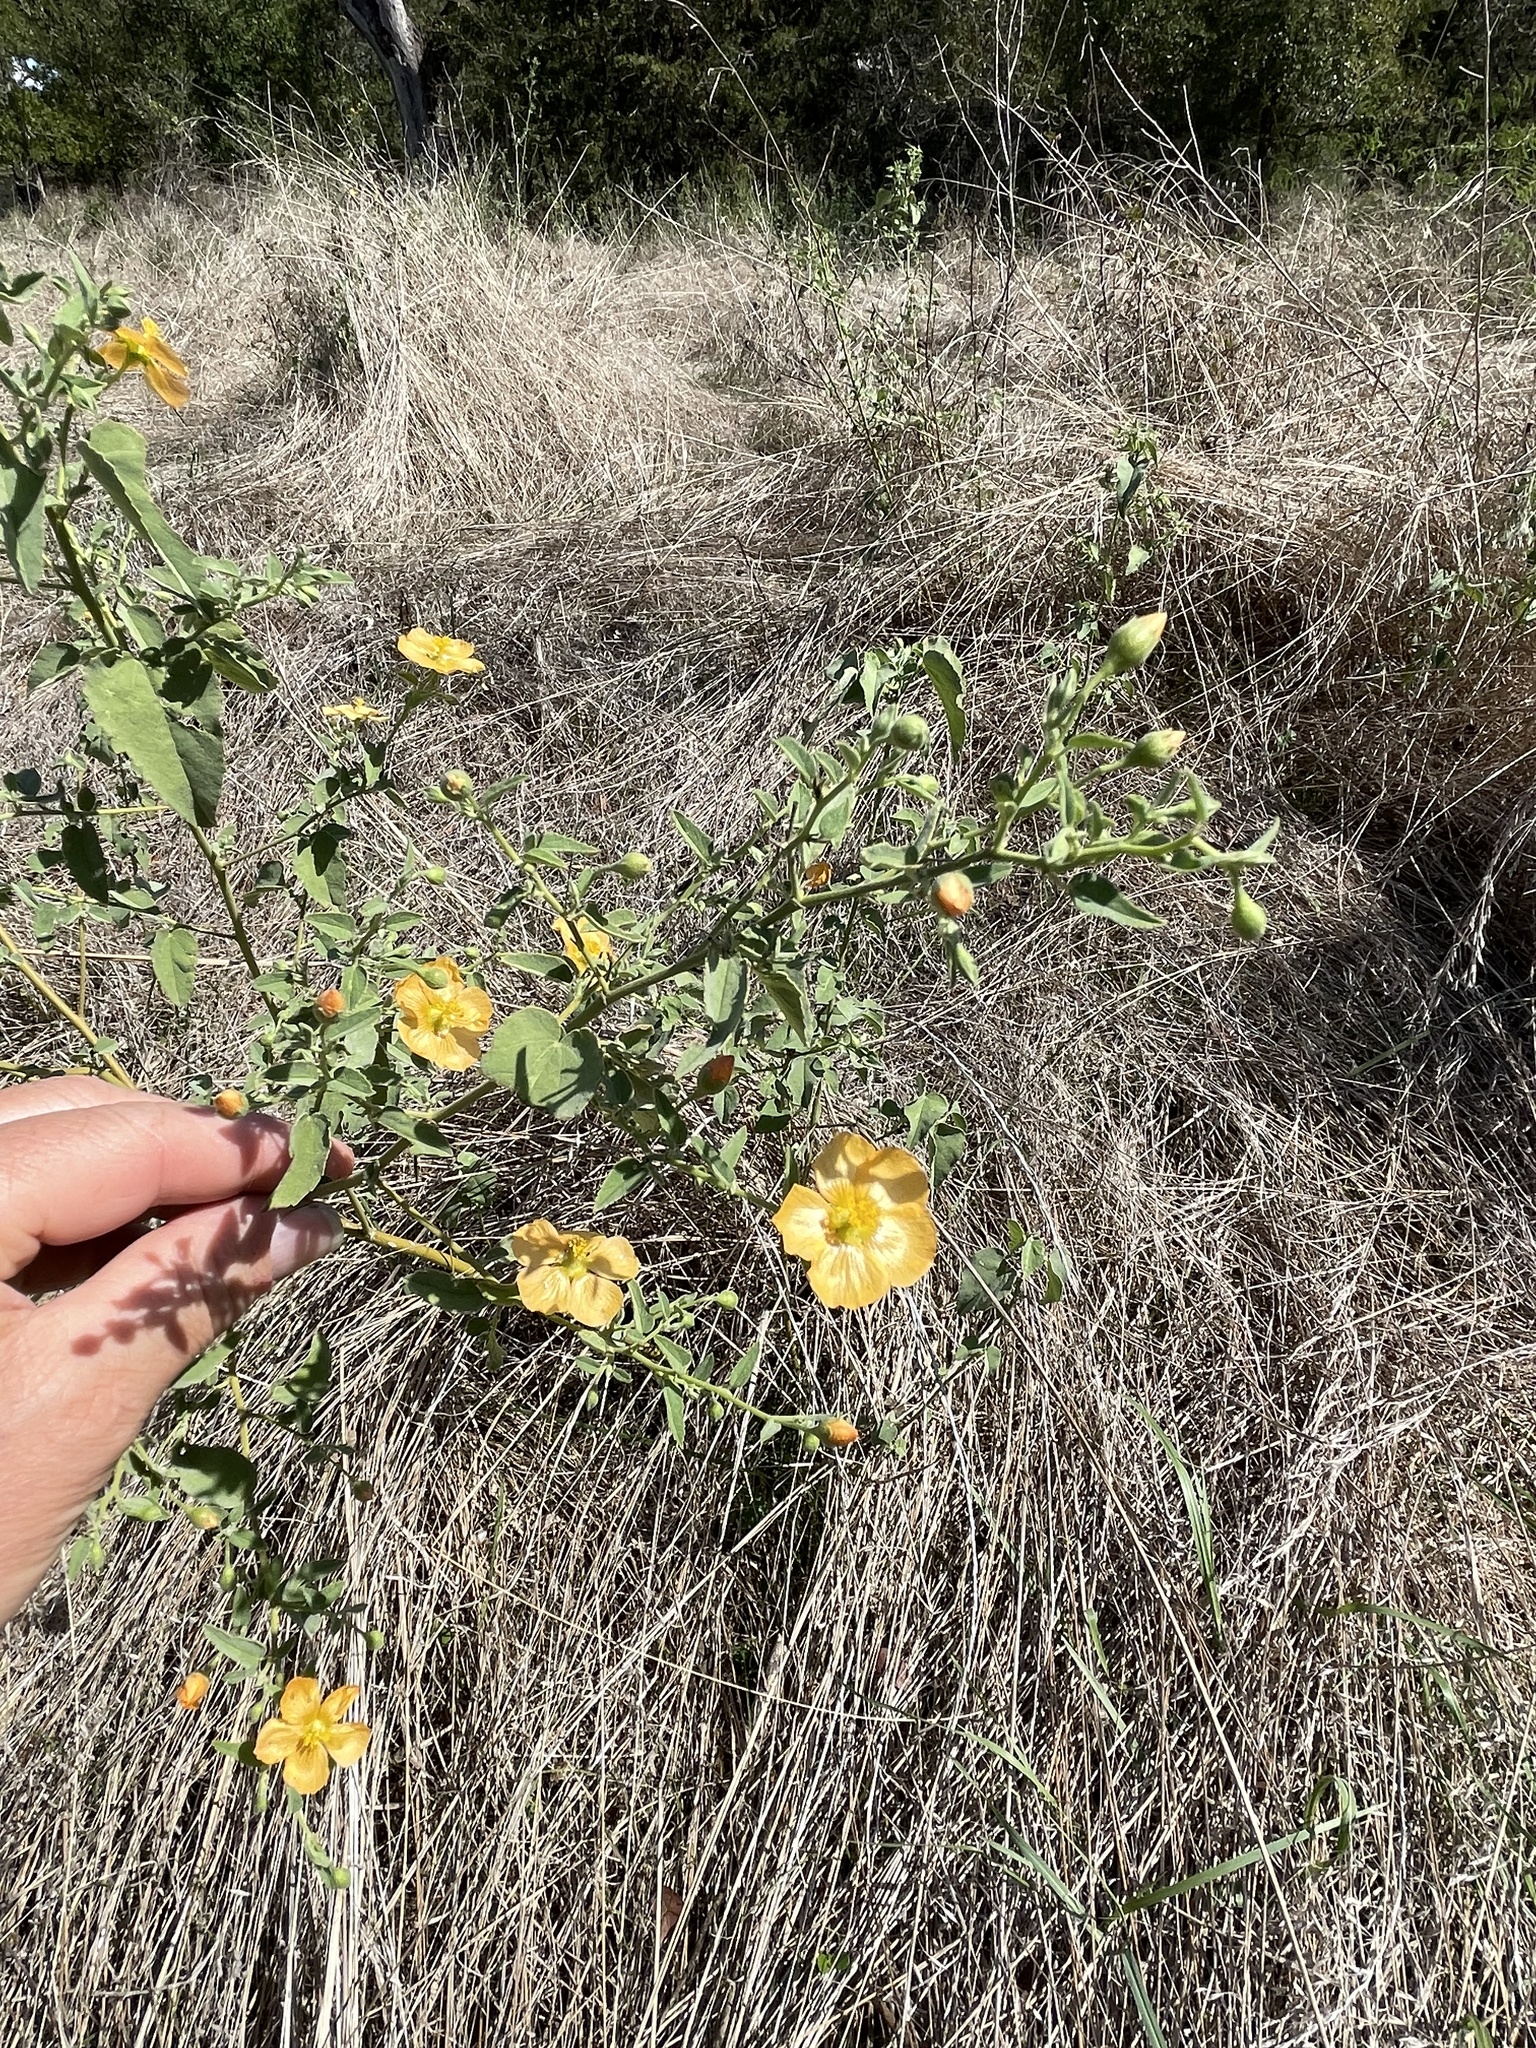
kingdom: Plantae
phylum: Tracheophyta
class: Magnoliopsida
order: Malvales
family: Malvaceae
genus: Abutilon
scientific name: Abutilon fruticosum
